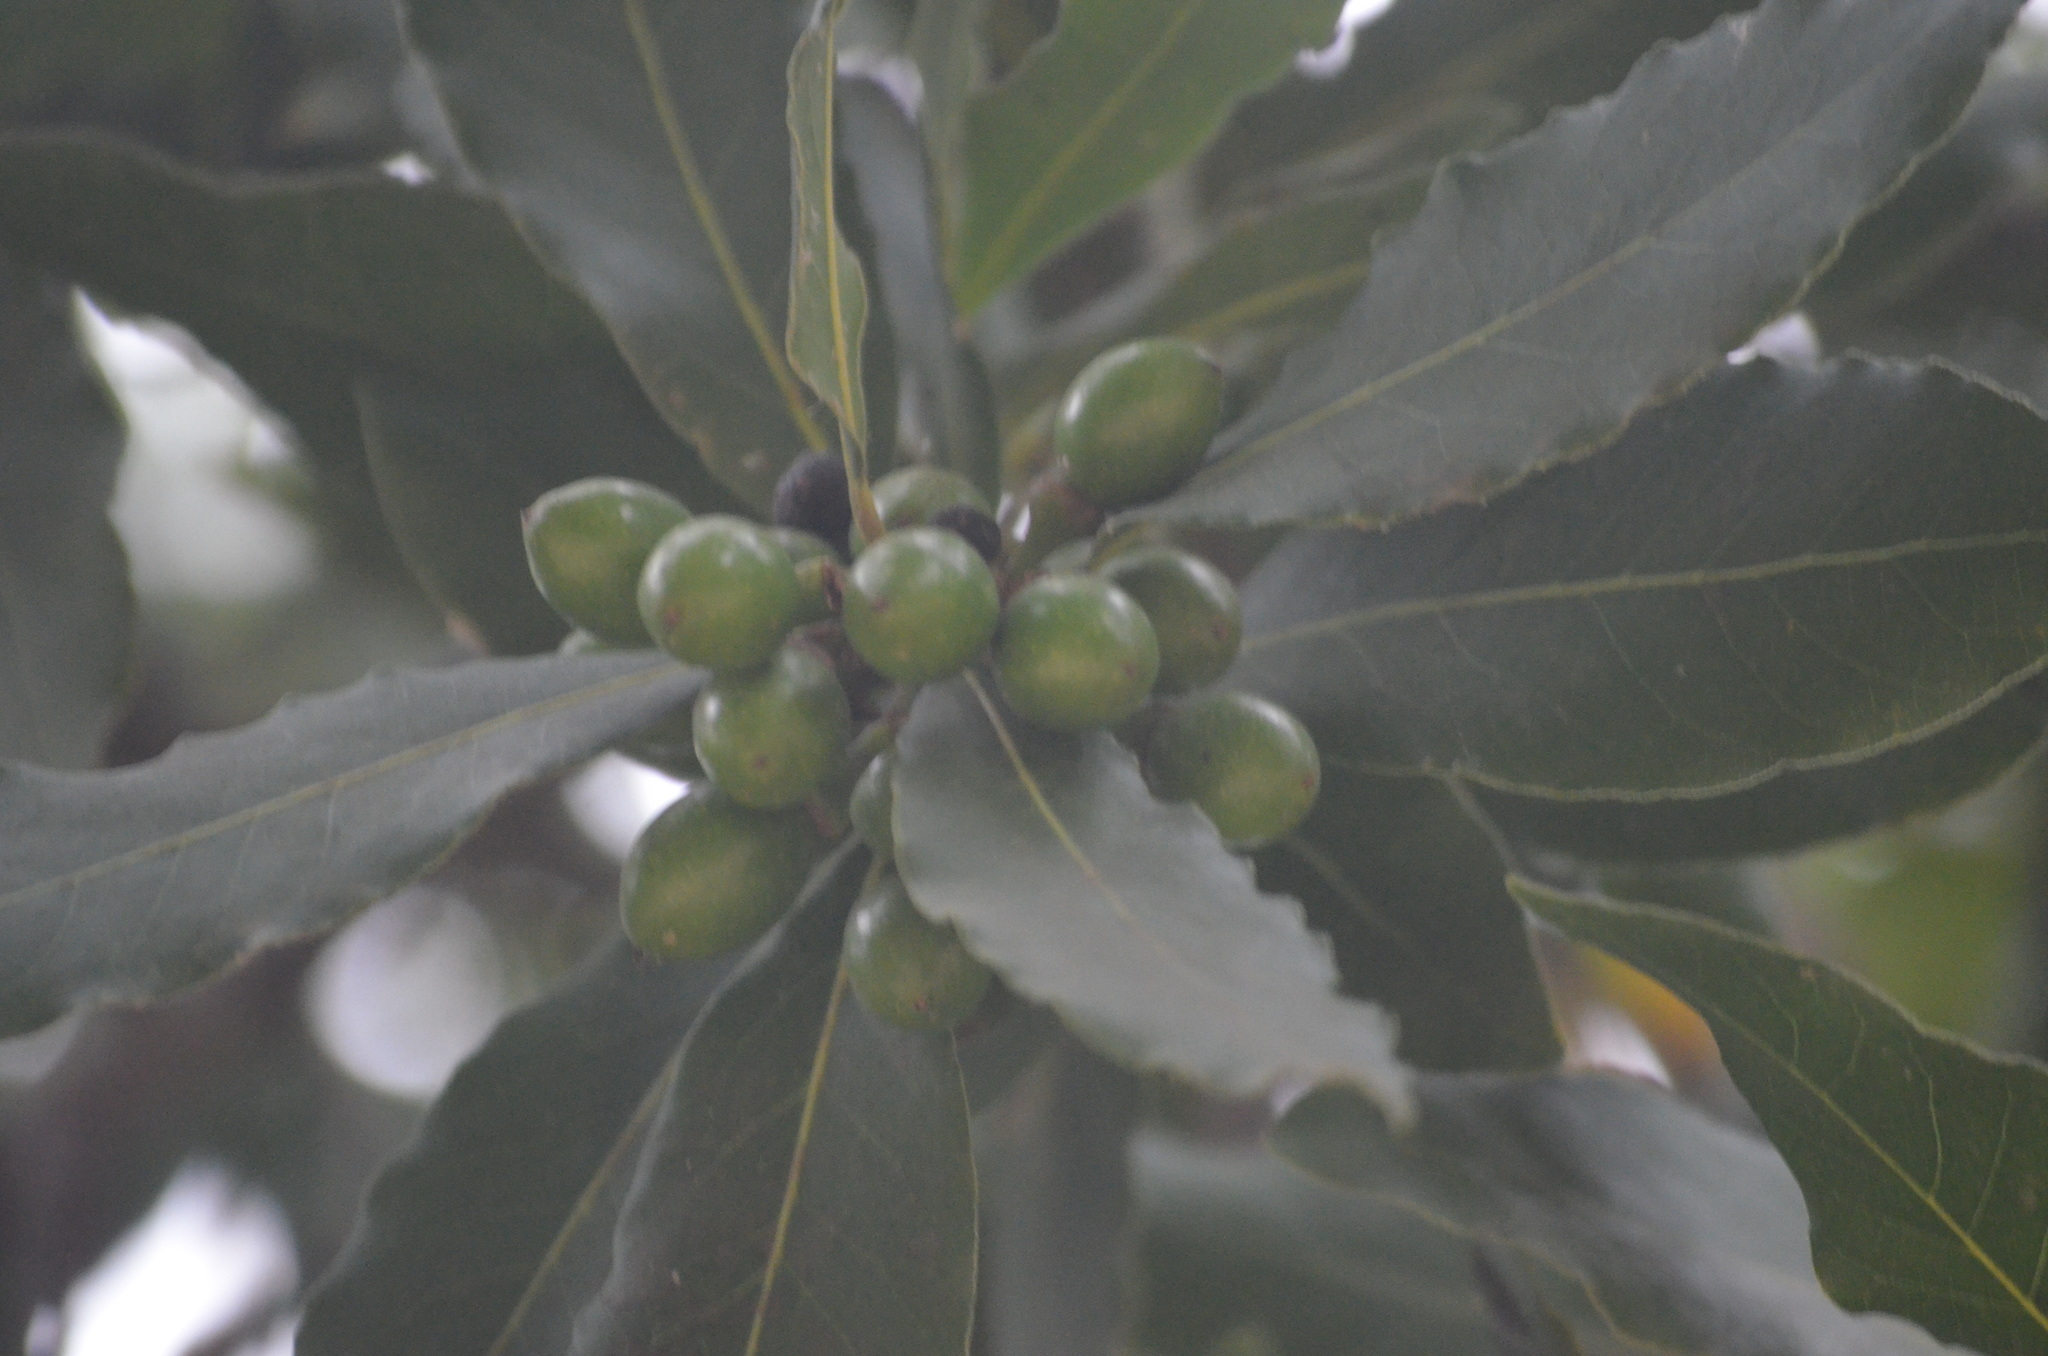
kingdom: Plantae
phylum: Tracheophyta
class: Magnoliopsida
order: Laurales
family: Lauraceae
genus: Laurus
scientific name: Laurus nobilis
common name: Bay
